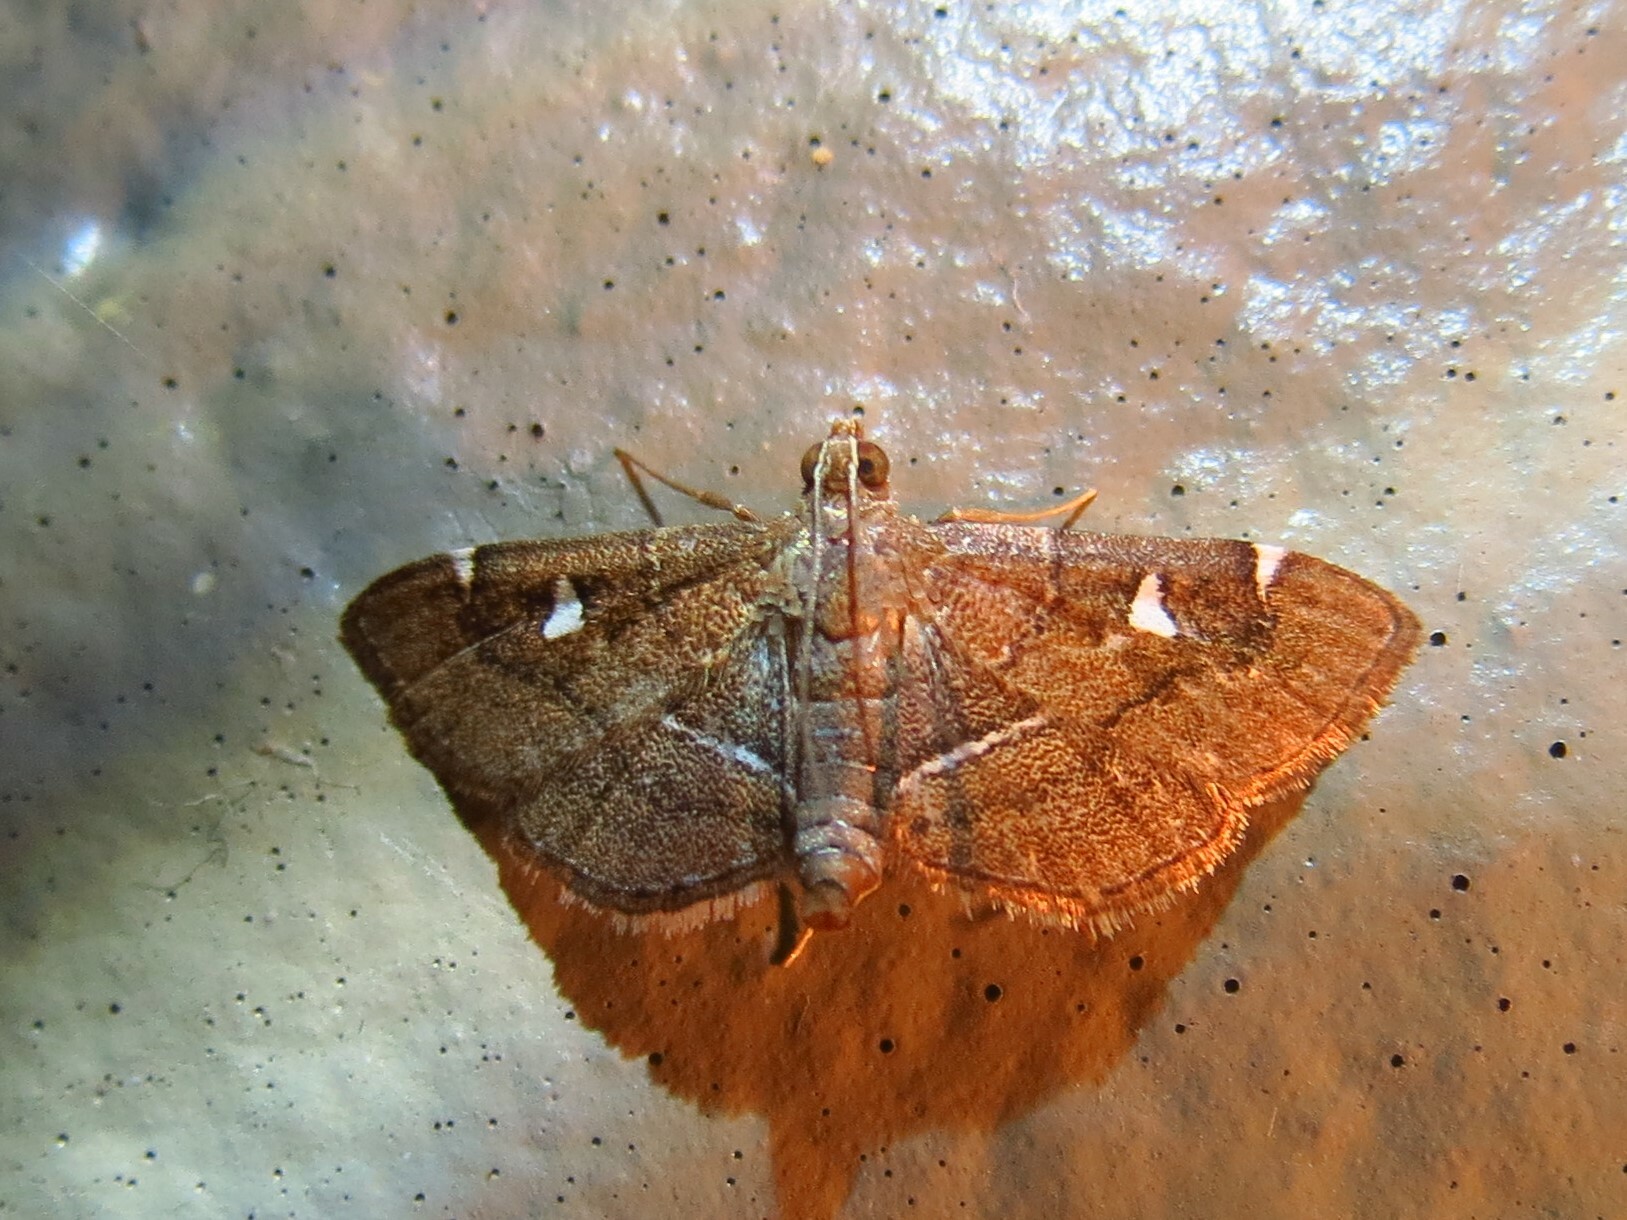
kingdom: Animalia
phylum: Arthropoda
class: Insecta
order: Lepidoptera
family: Crambidae
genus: Lamprosema
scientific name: Lamprosema victoriae
